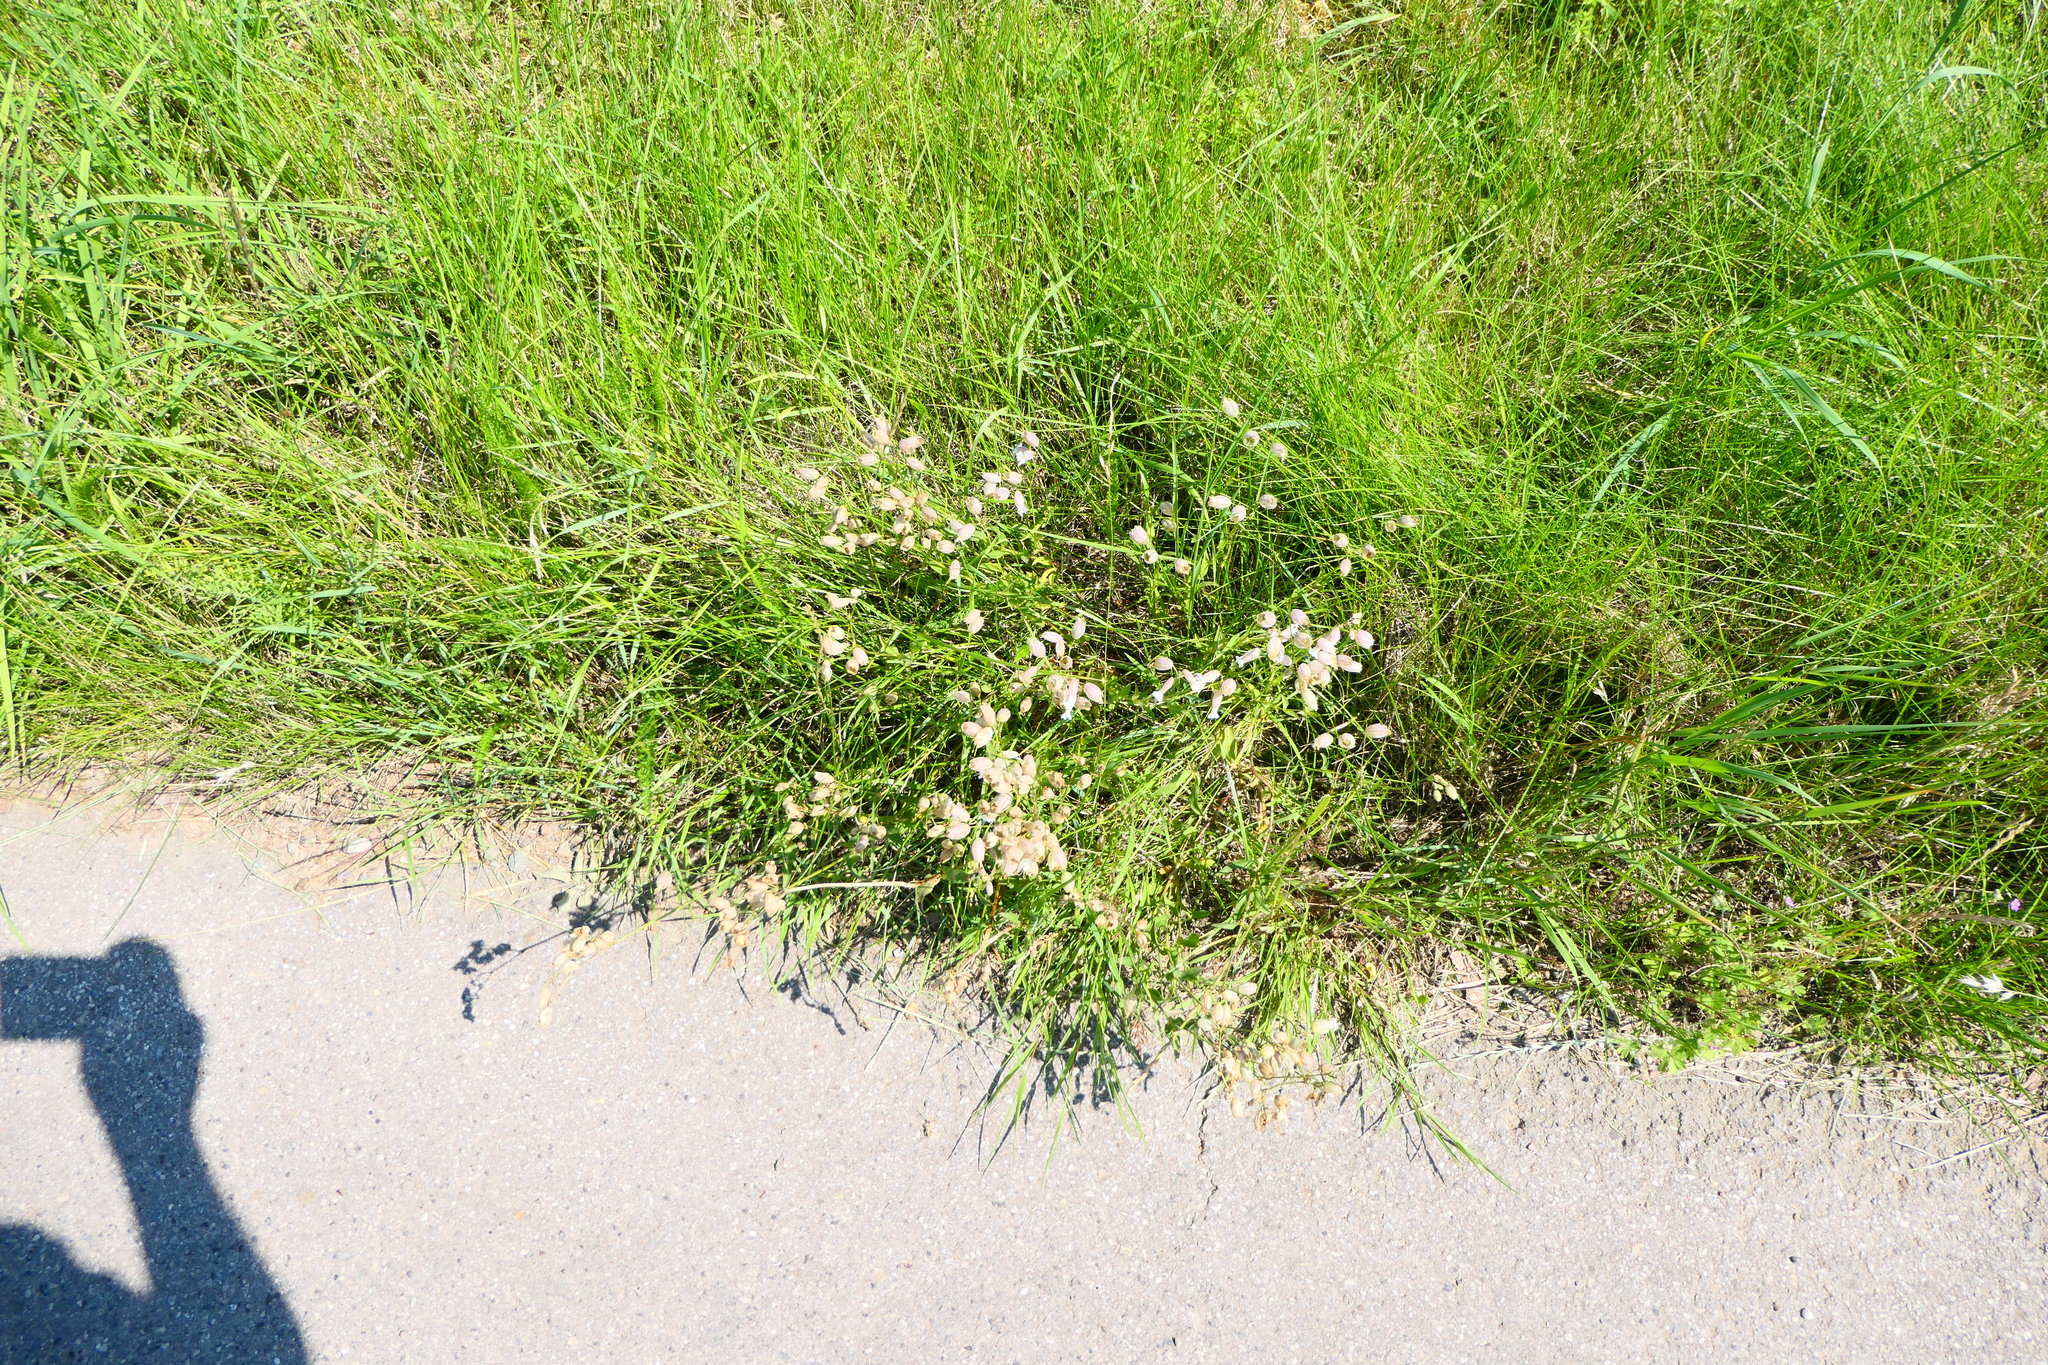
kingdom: Plantae
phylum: Tracheophyta
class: Magnoliopsida
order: Caryophyllales
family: Caryophyllaceae
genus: Silene
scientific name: Silene vulgaris
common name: Bladder campion
